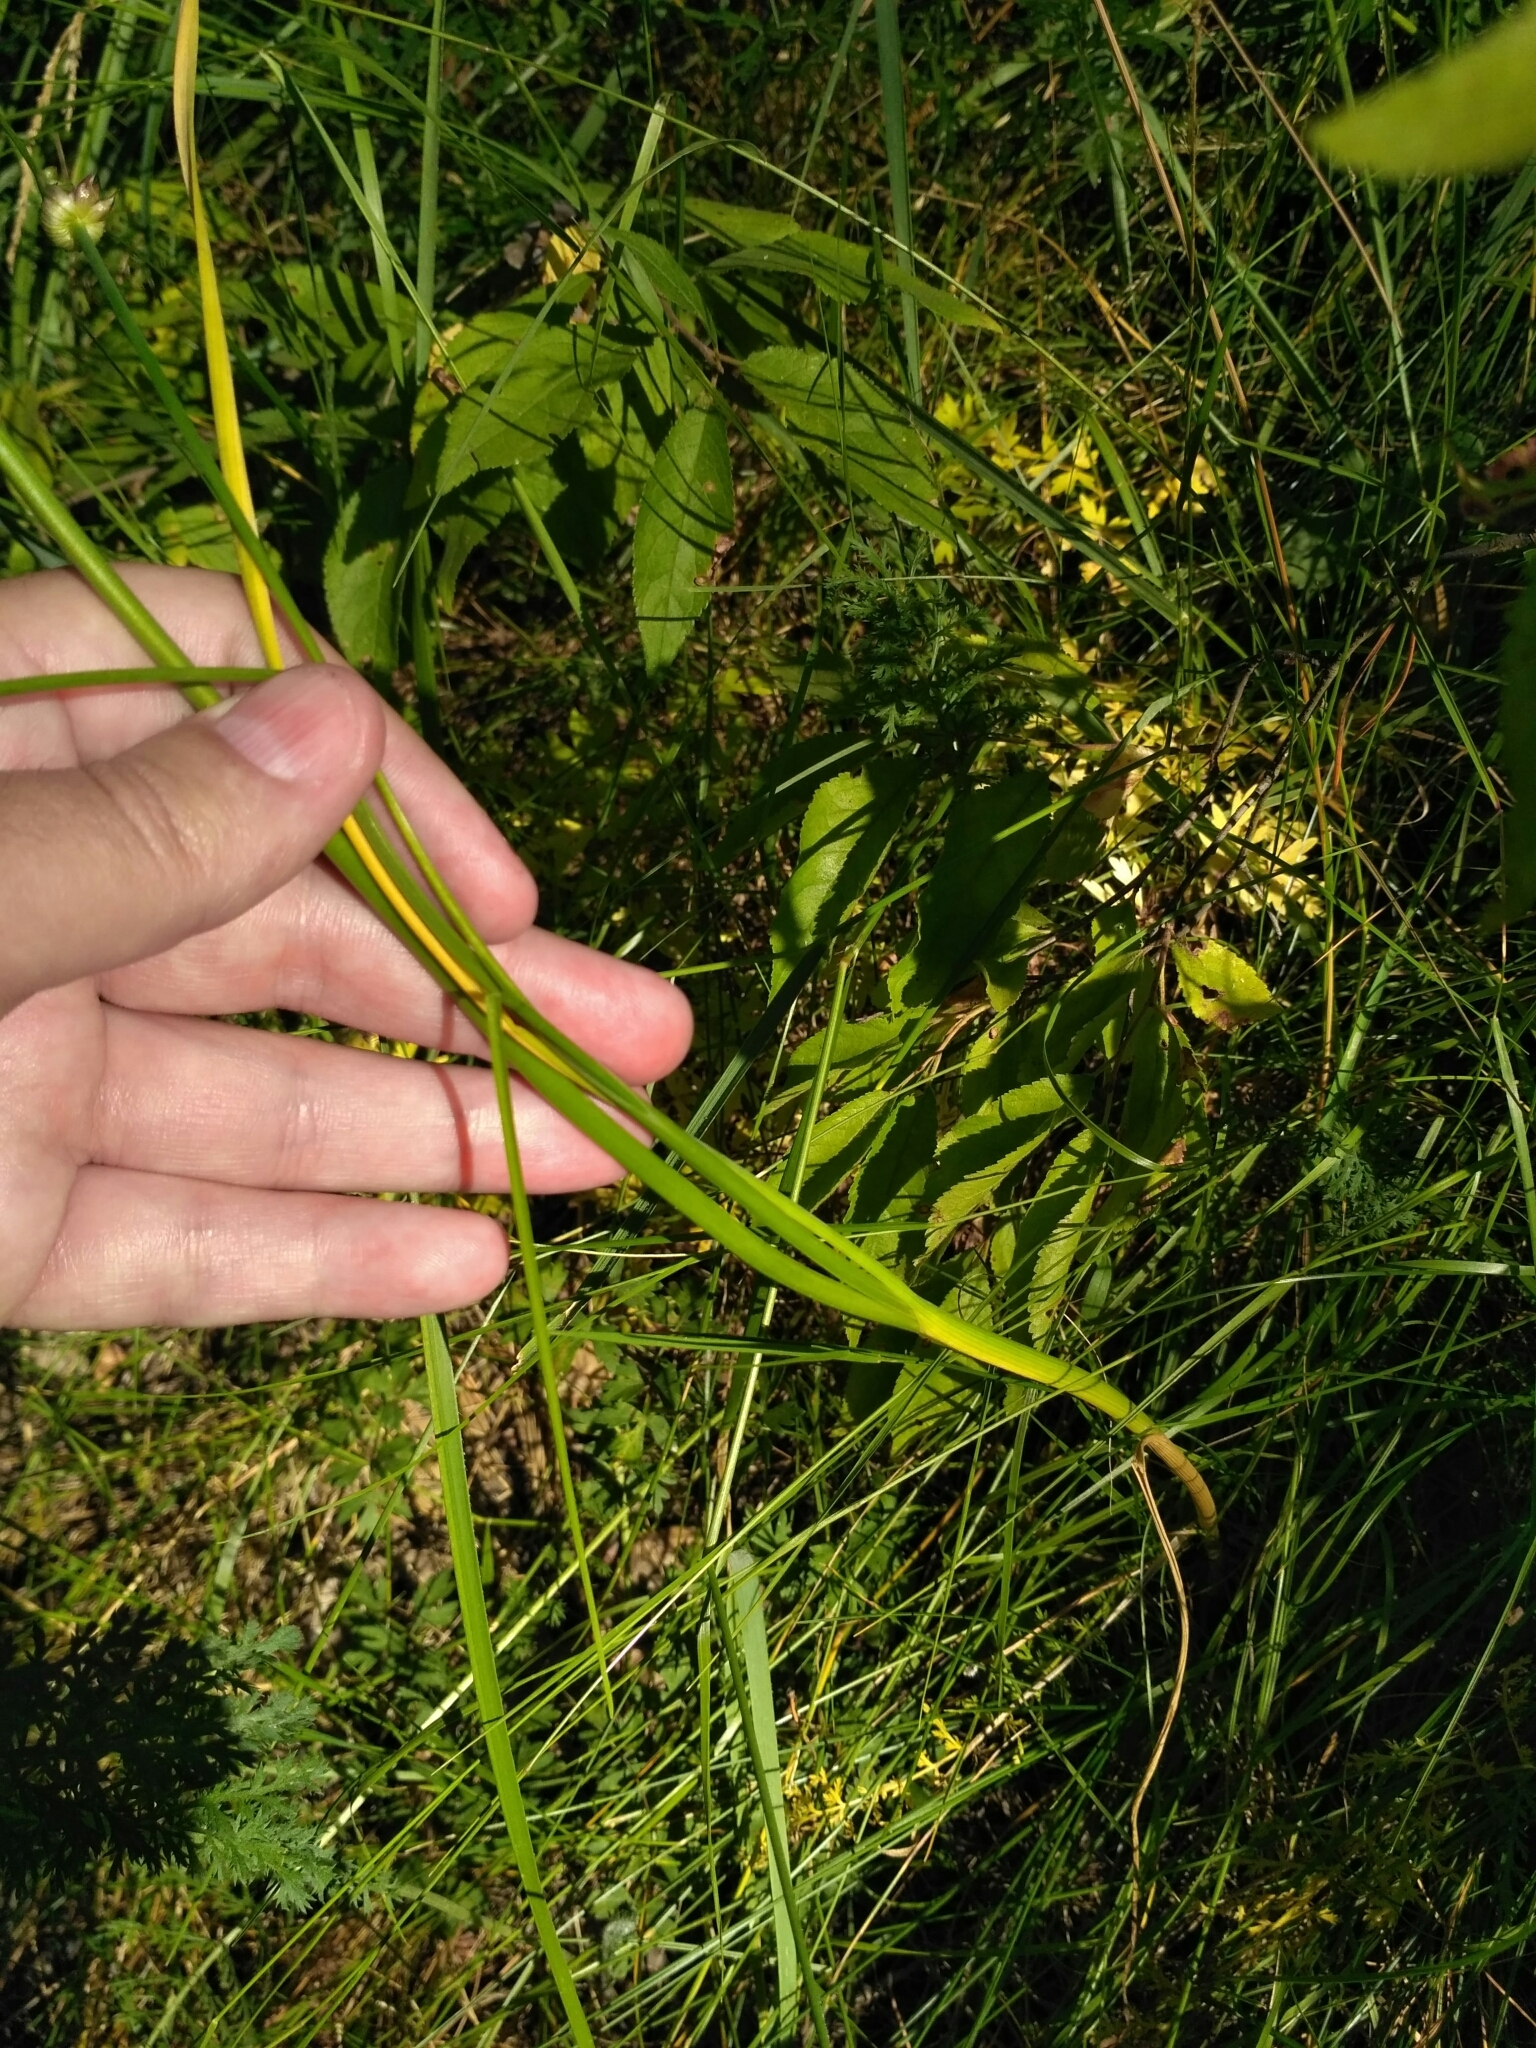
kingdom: Plantae
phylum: Tracheophyta
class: Liliopsida
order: Asparagales
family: Amaryllidaceae
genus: Allium
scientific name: Allium oleraceum
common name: Field garlic
